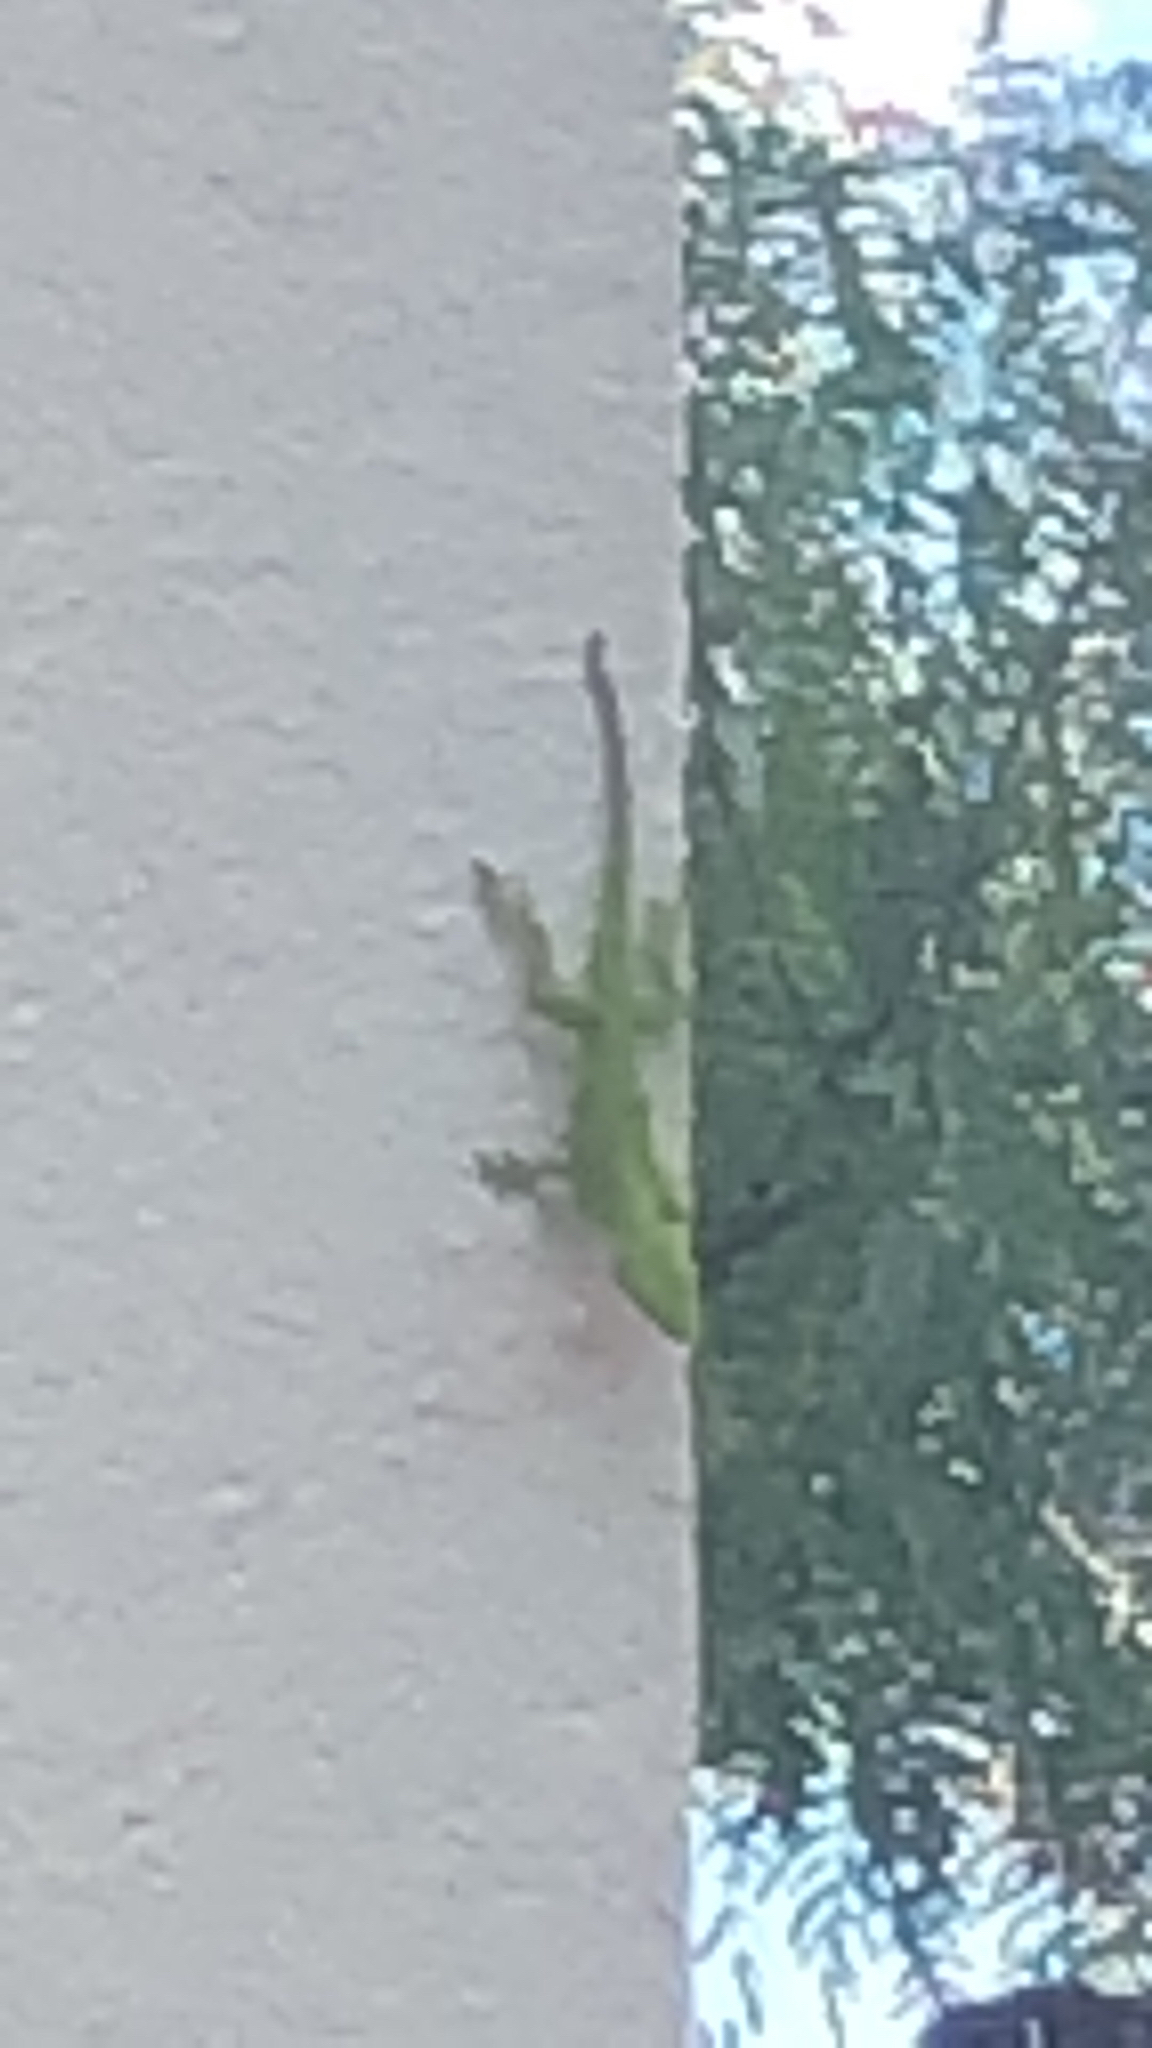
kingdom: Animalia
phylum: Chordata
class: Squamata
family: Dactyloidae
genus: Anolis
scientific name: Anolis carolinensis
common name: Green anole
